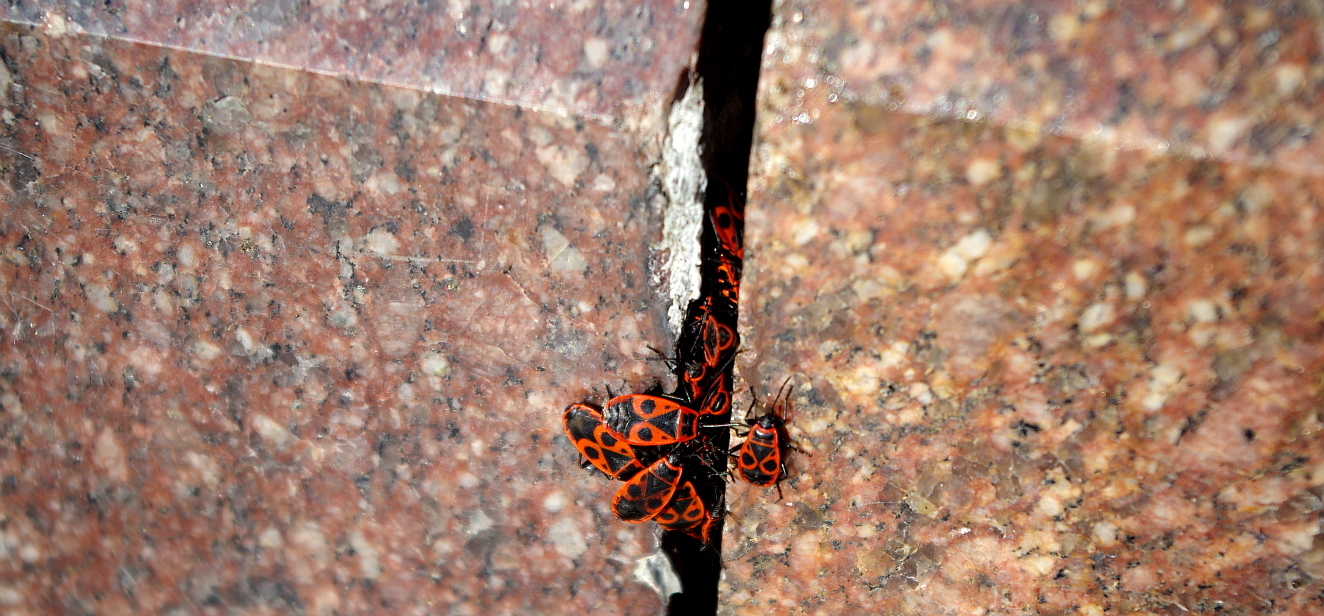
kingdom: Animalia
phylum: Arthropoda
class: Insecta
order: Hemiptera
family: Pyrrhocoridae
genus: Pyrrhocoris
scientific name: Pyrrhocoris apterus
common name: Firebug
